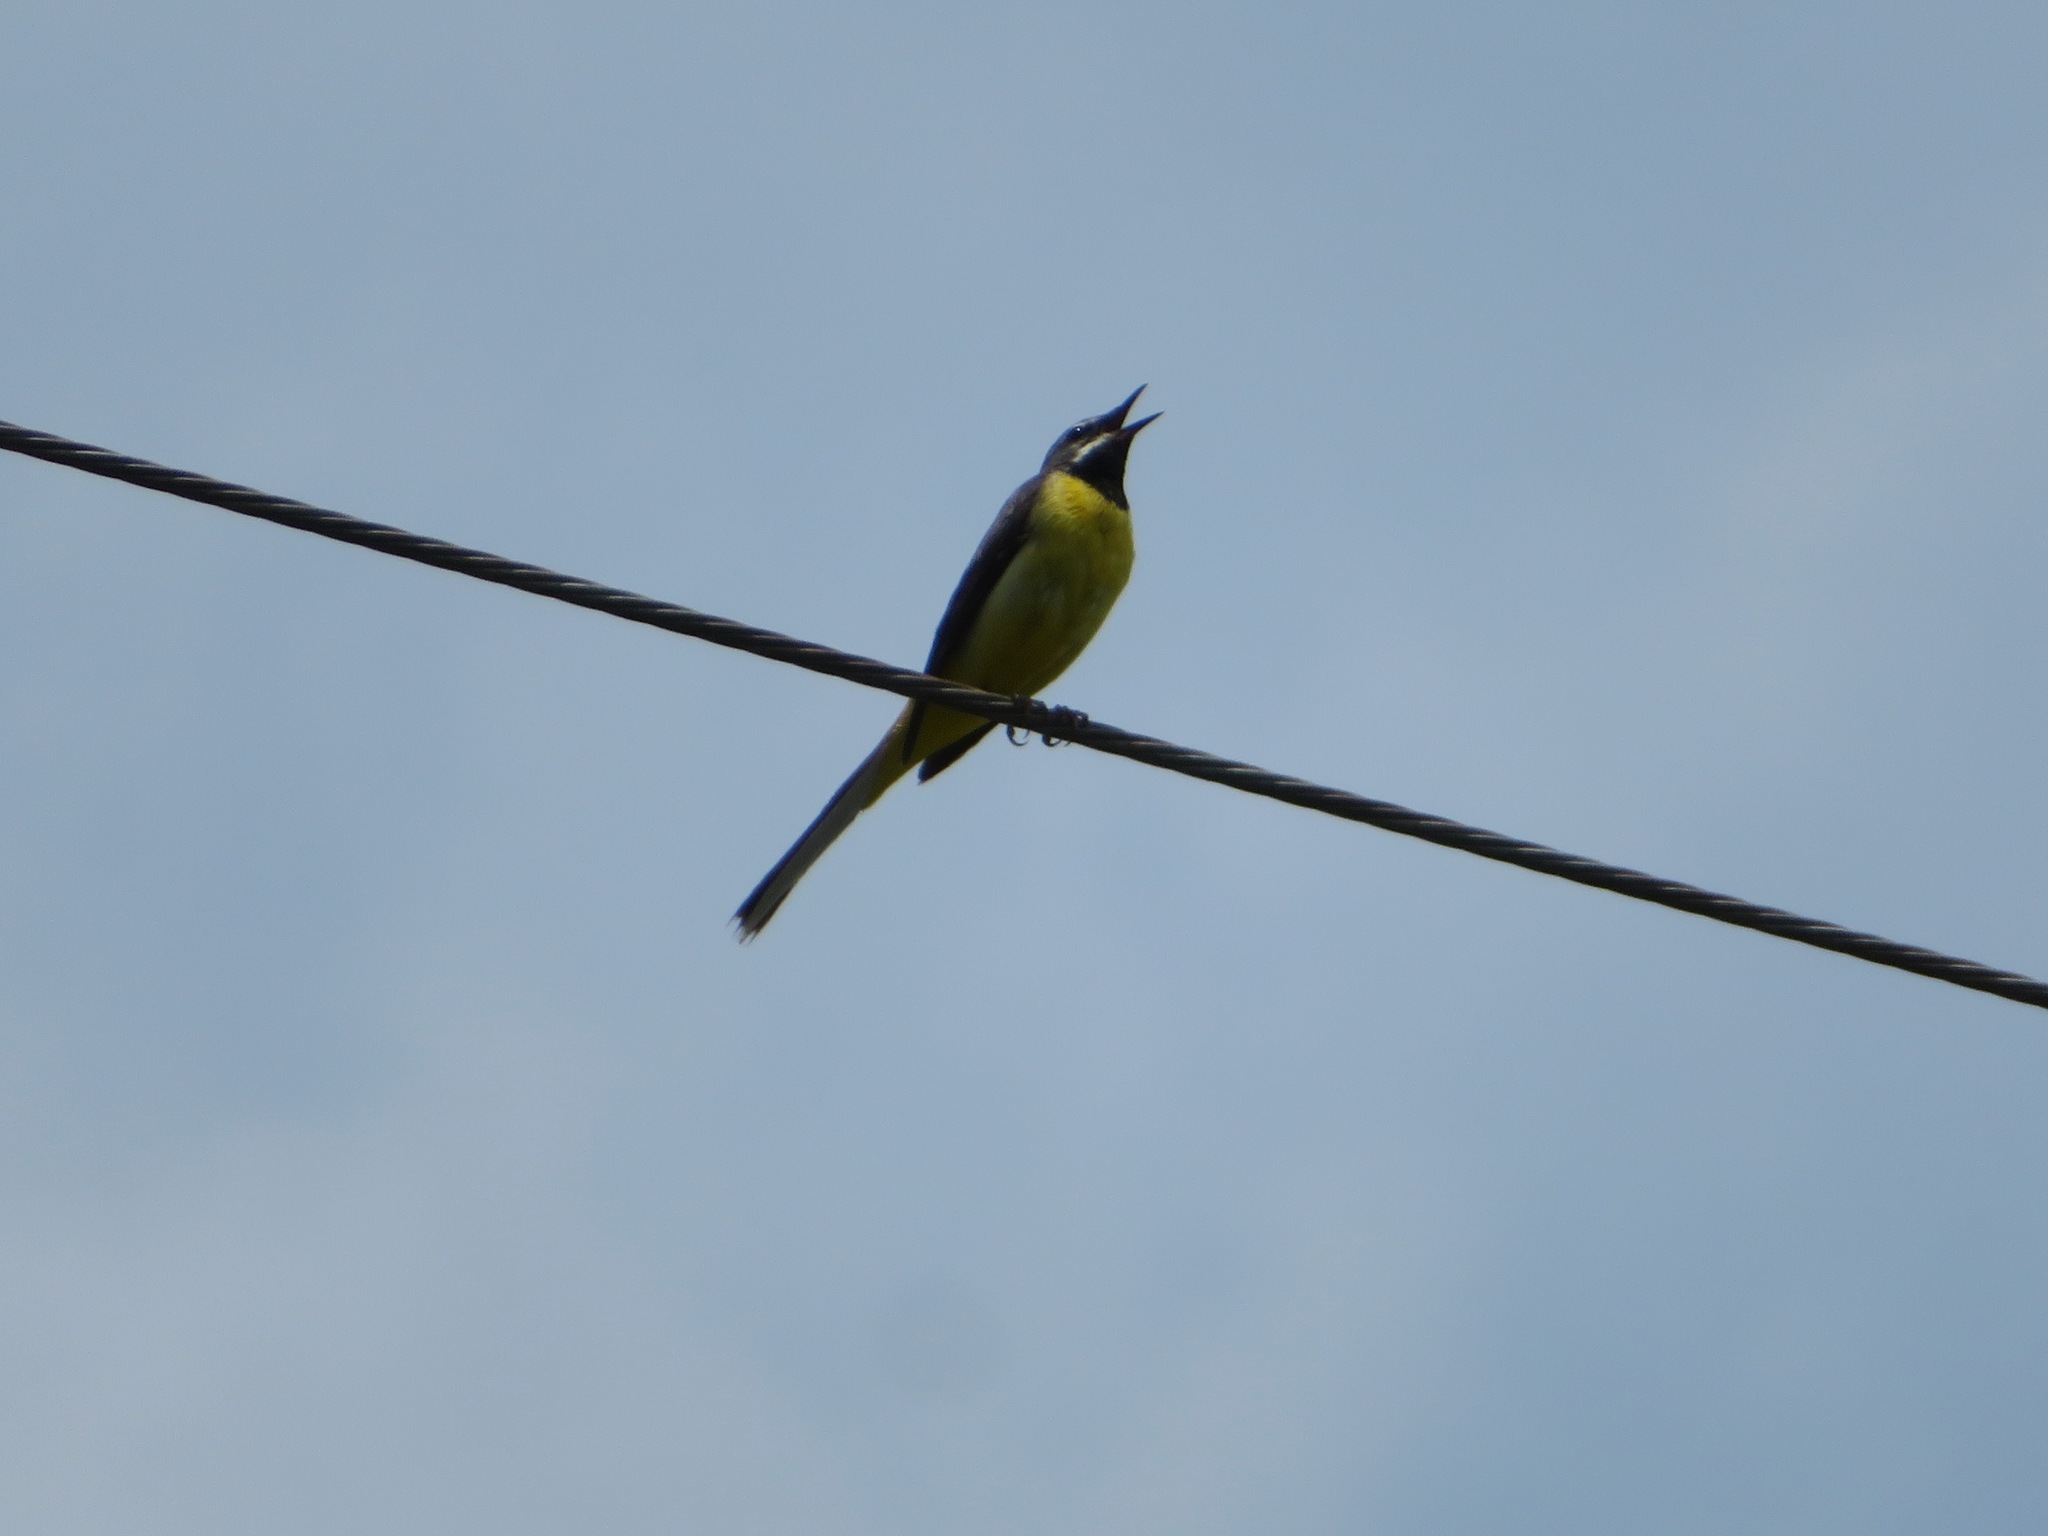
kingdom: Animalia
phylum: Chordata
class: Aves
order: Passeriformes
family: Motacillidae
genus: Motacilla
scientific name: Motacilla cinerea
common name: Grey wagtail
